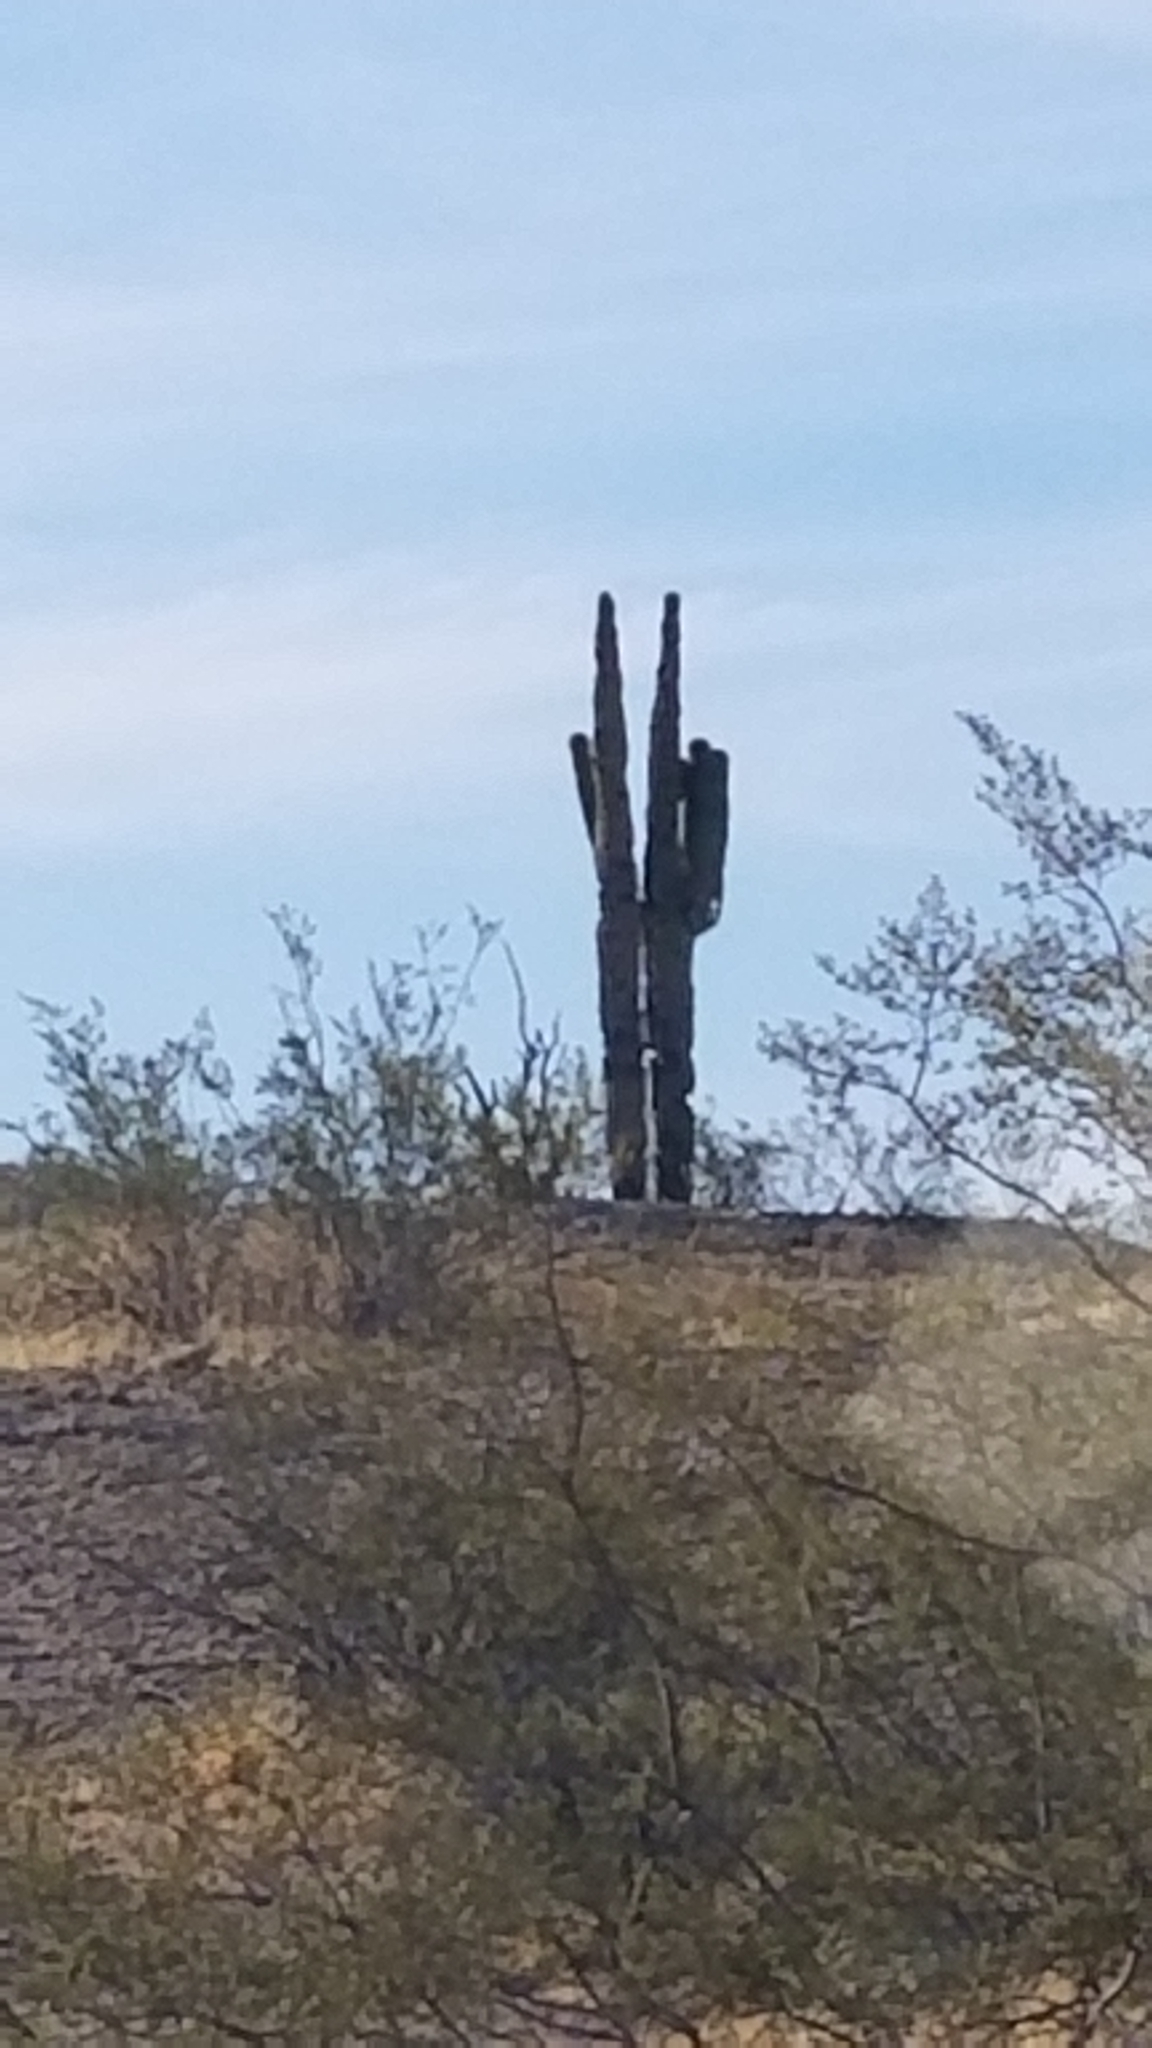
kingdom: Plantae
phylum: Tracheophyta
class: Magnoliopsida
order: Caryophyllales
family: Cactaceae
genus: Carnegiea
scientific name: Carnegiea gigantea
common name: Saguaro
